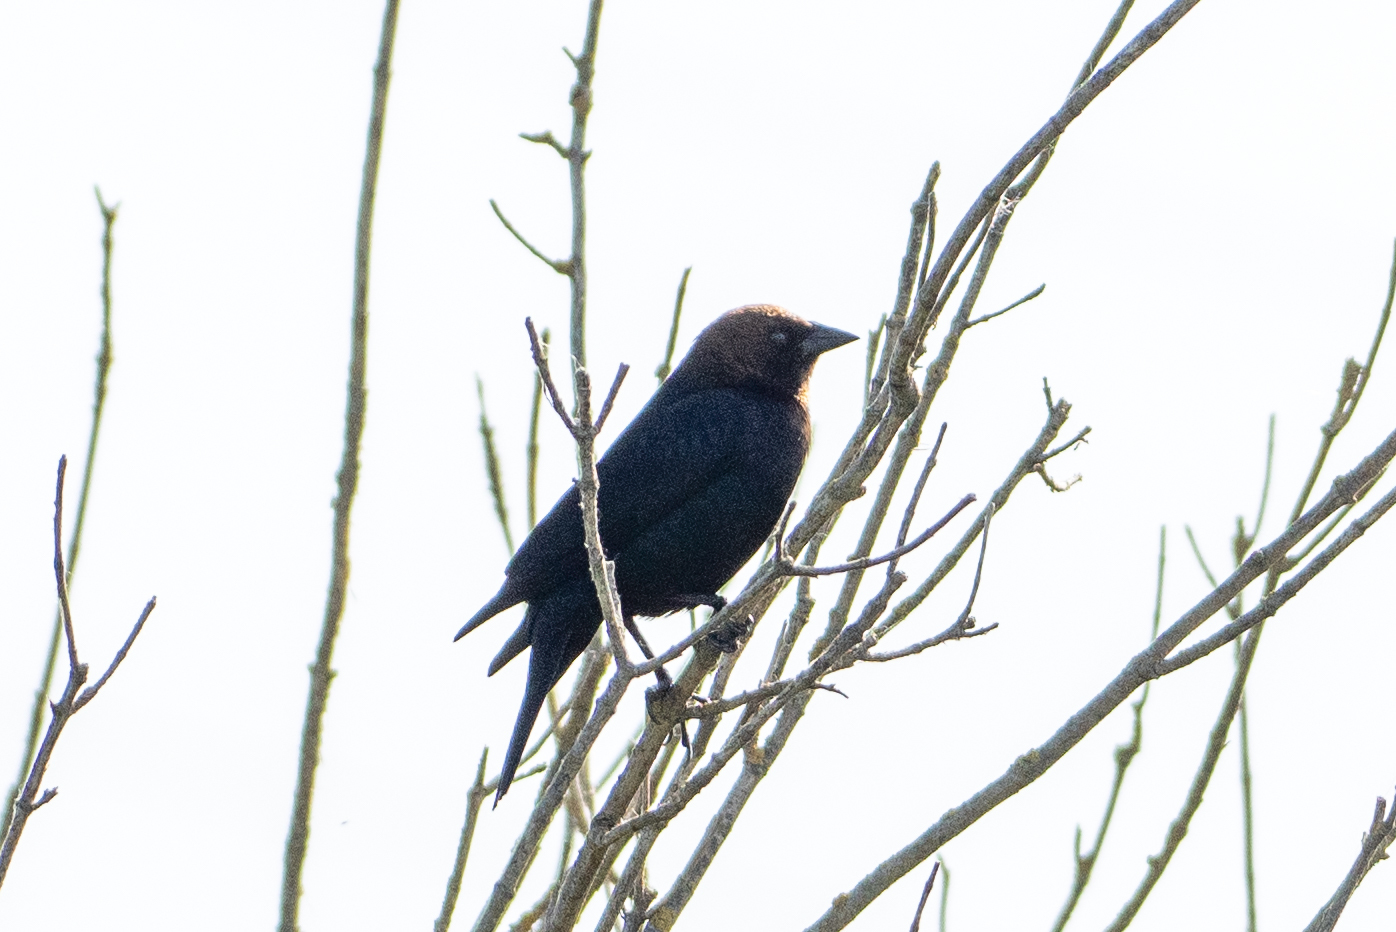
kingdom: Animalia
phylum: Chordata
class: Aves
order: Passeriformes
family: Icteridae
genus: Molothrus
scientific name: Molothrus ater
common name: Brown-headed cowbird
